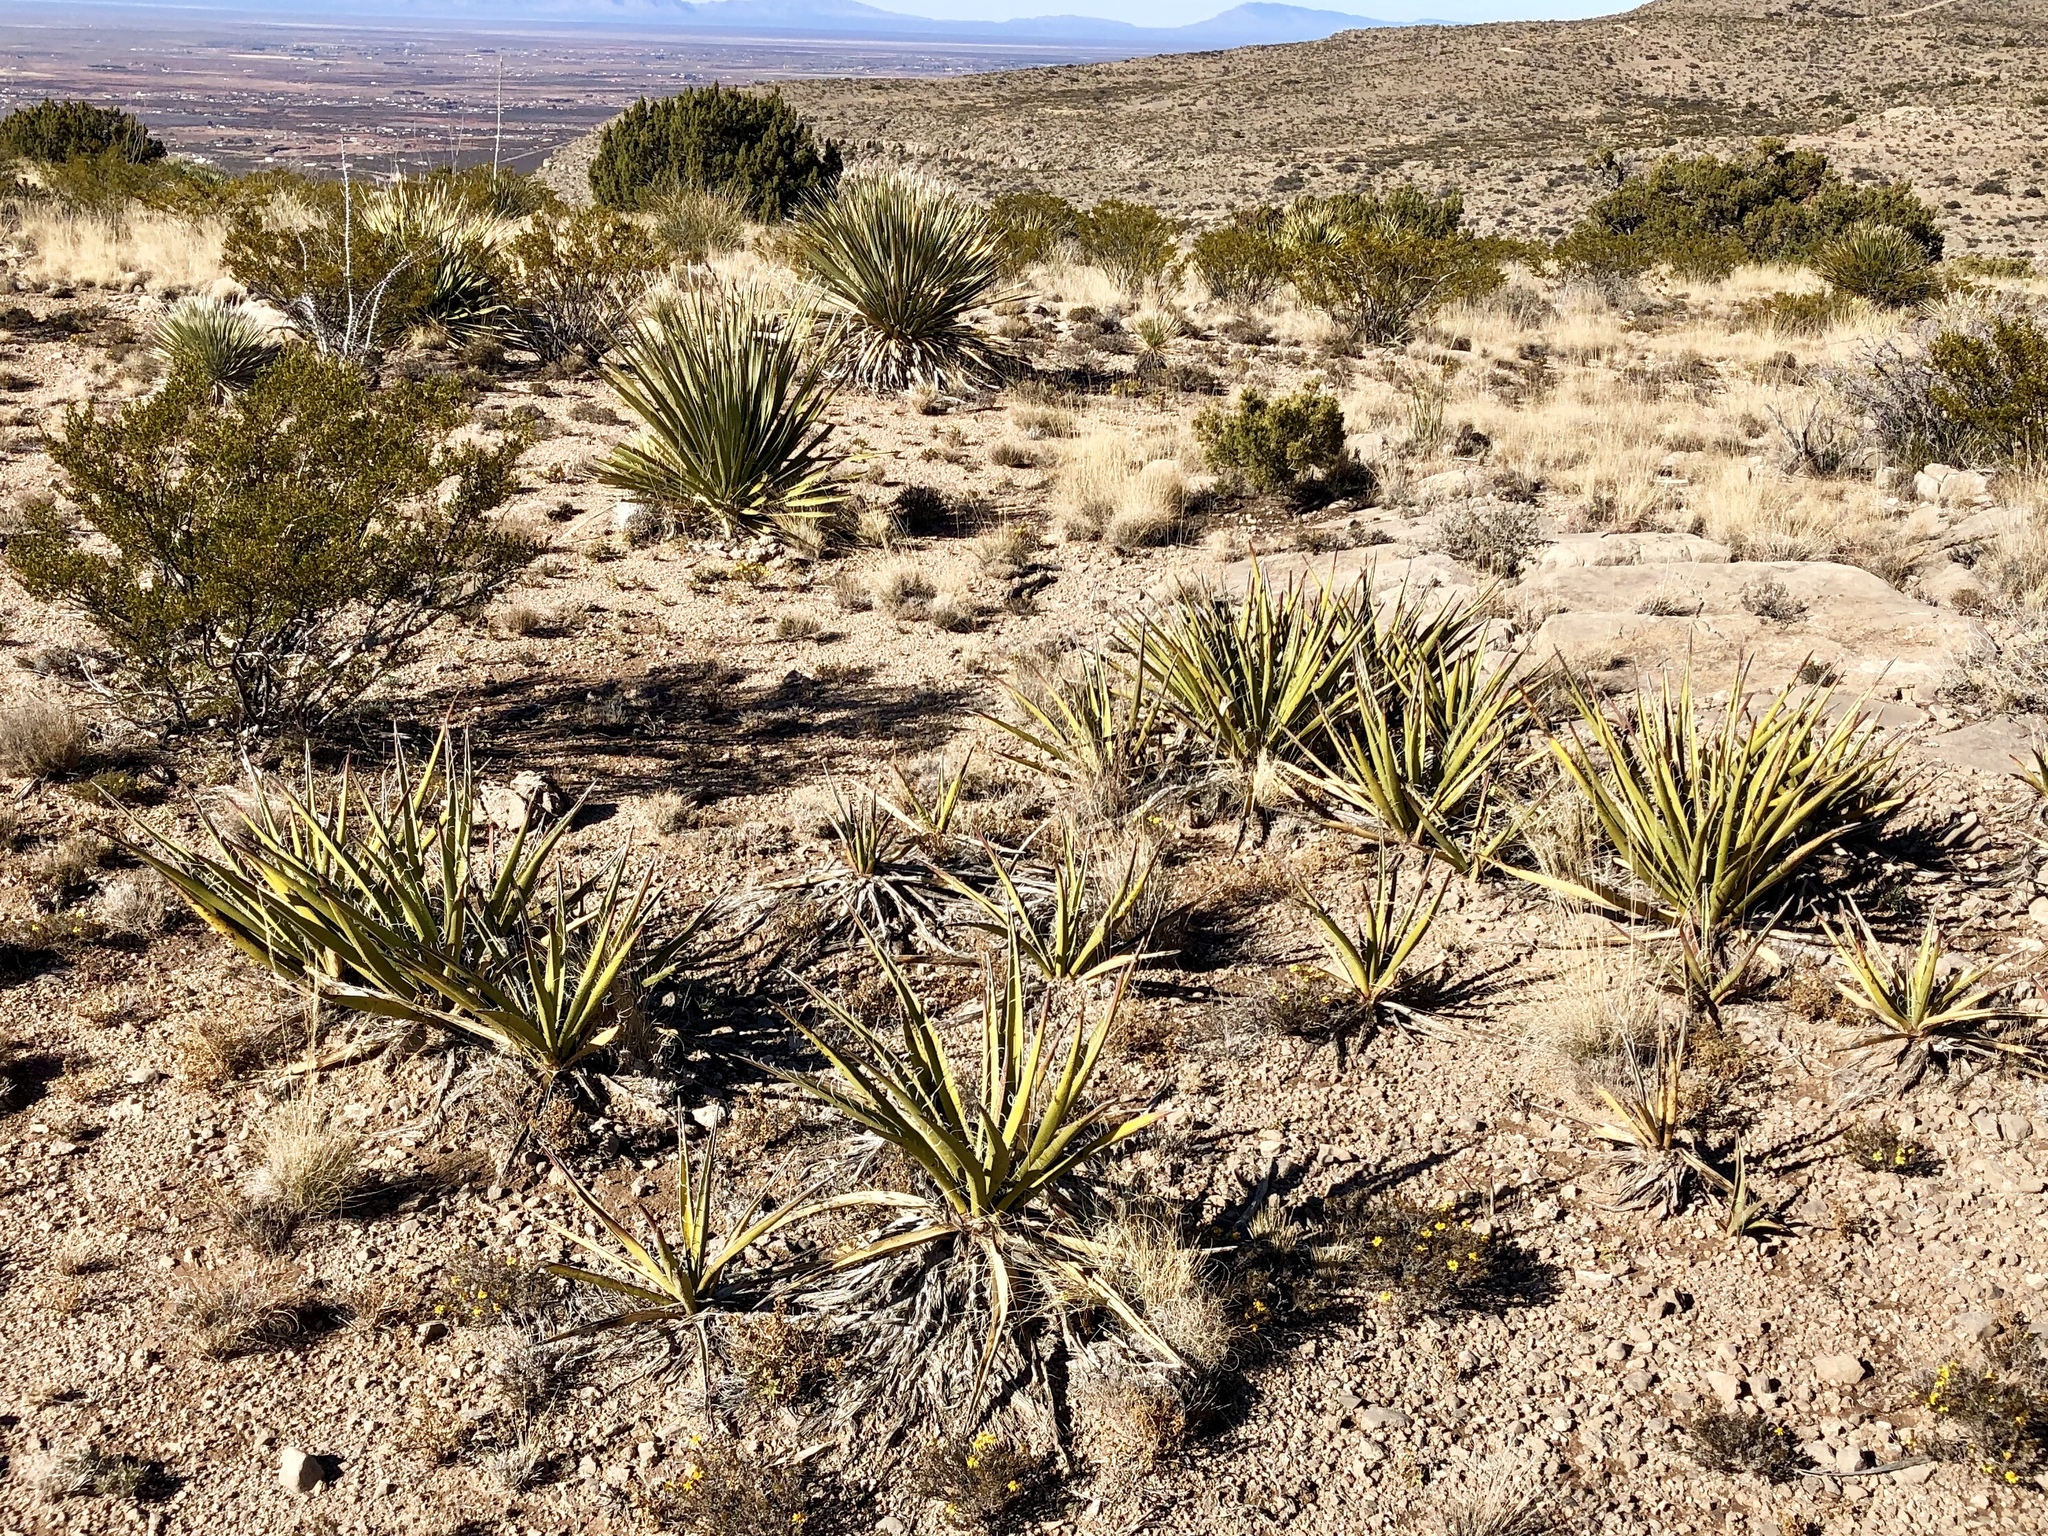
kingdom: Plantae
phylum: Tracheophyta
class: Liliopsida
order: Asparagales
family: Asparagaceae
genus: Yucca
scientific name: Yucca baccata
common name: Banana yucca
